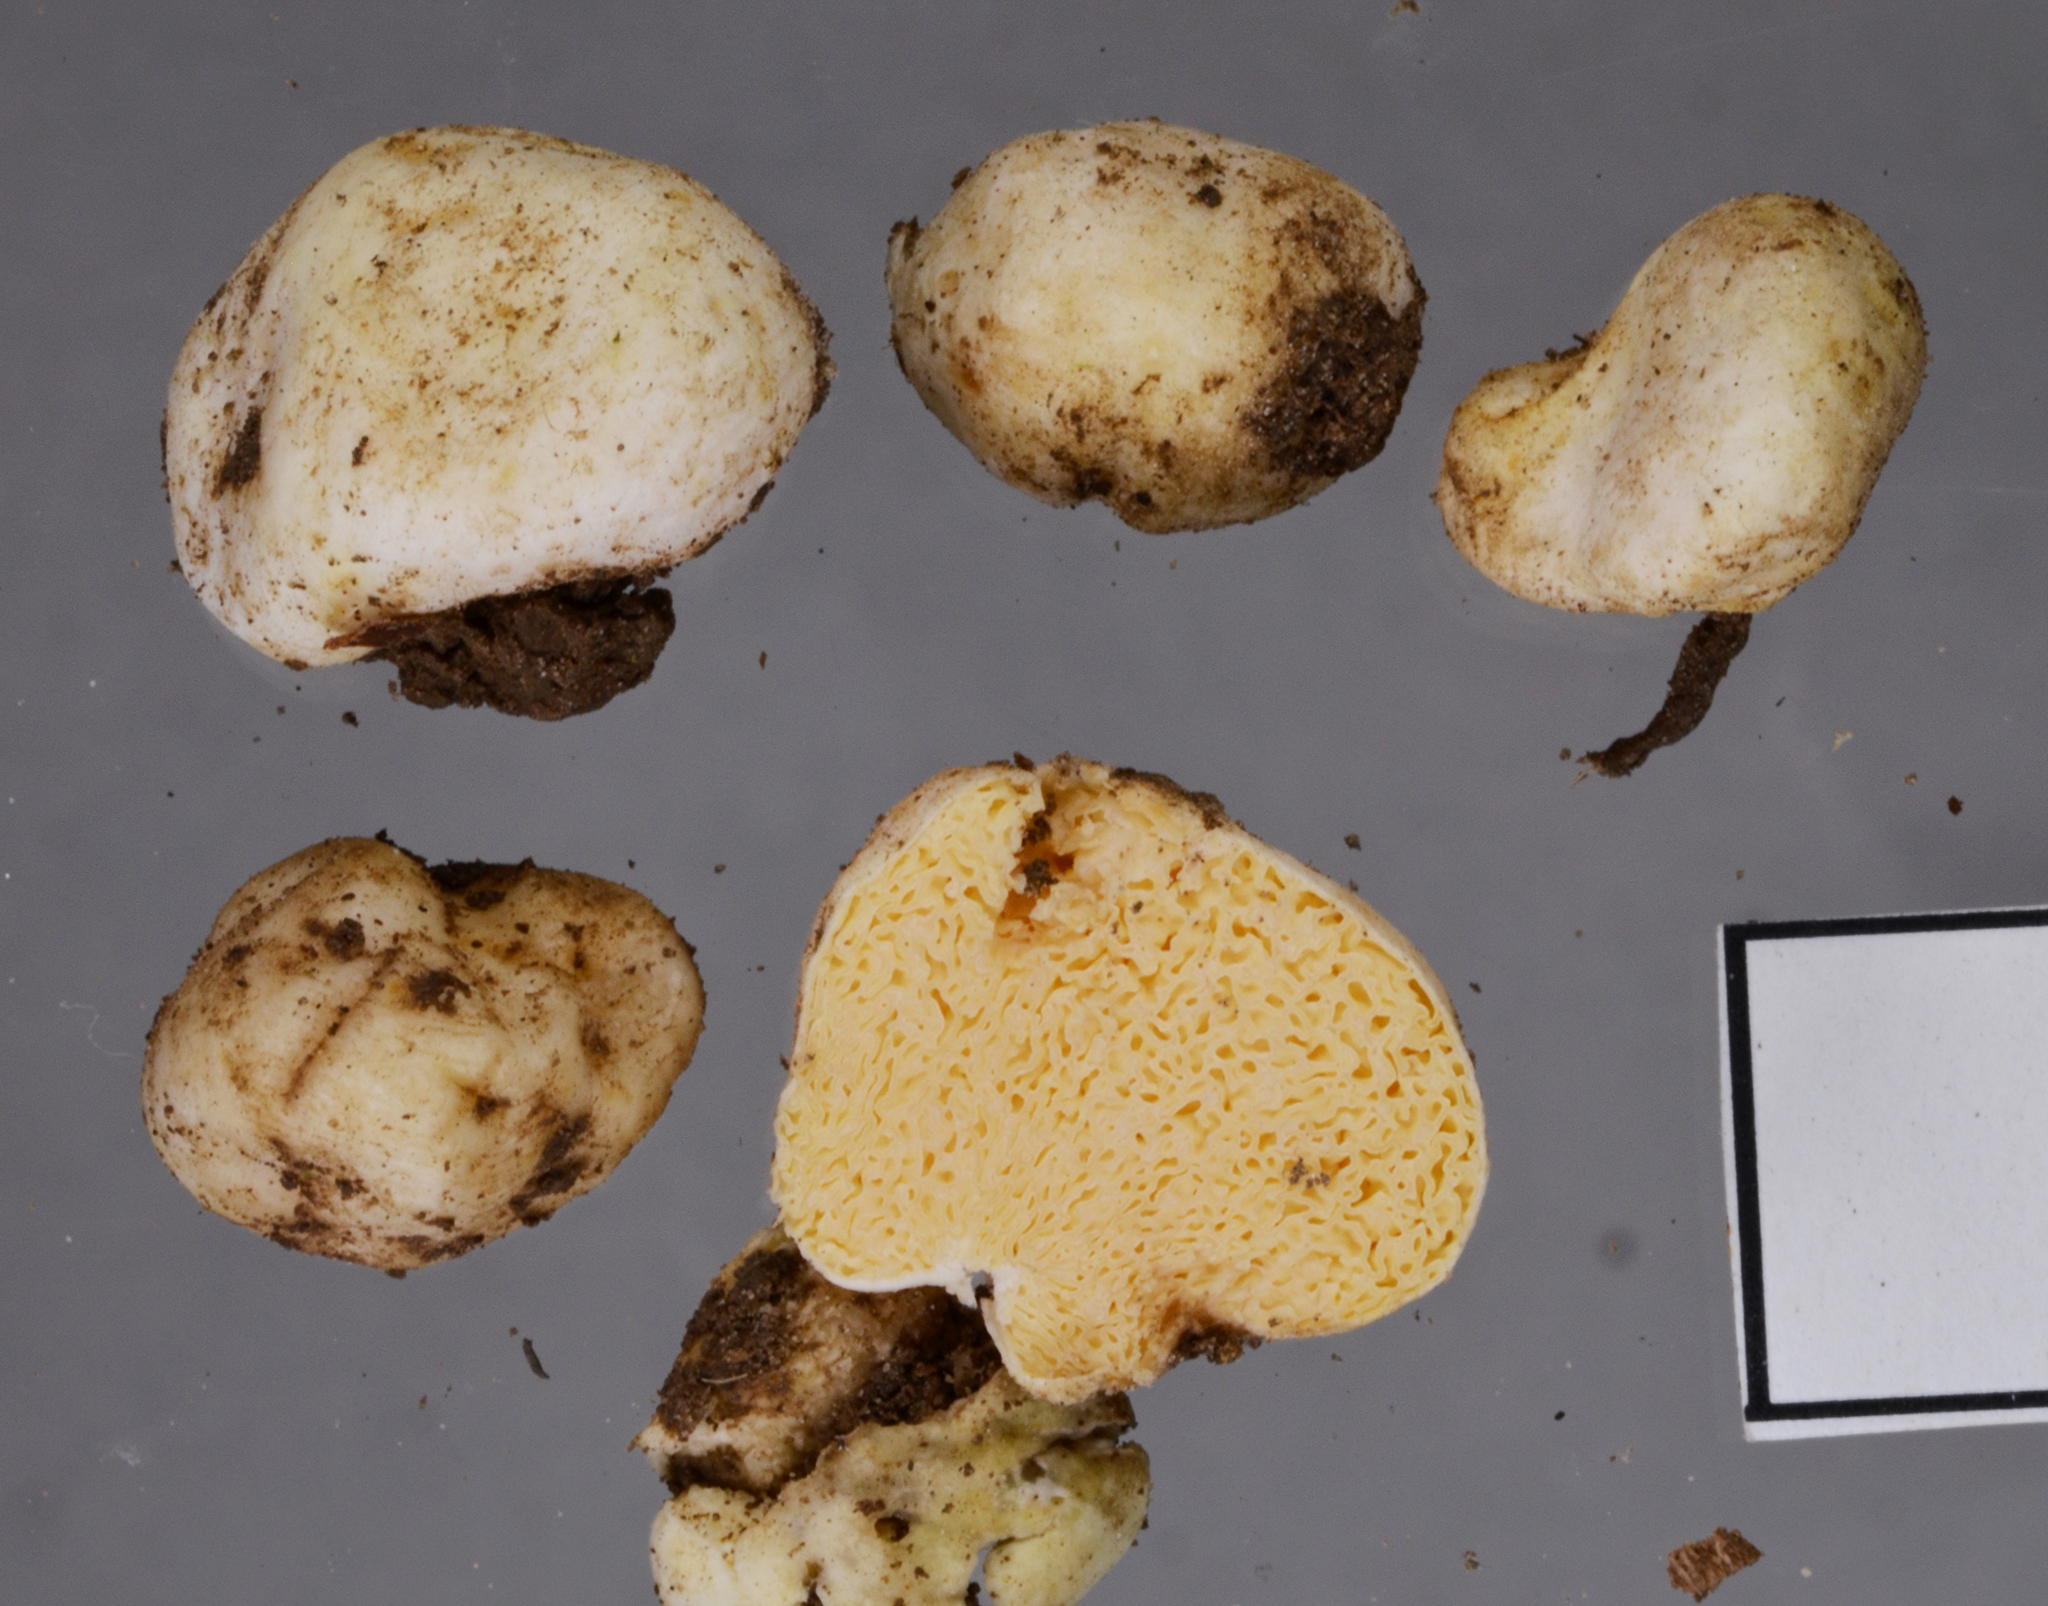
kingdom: Fungi
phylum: Basidiomycota
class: Agaricomycetes
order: Russulales
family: Russulaceae
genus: Russula
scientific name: Russula osphranticarpa
